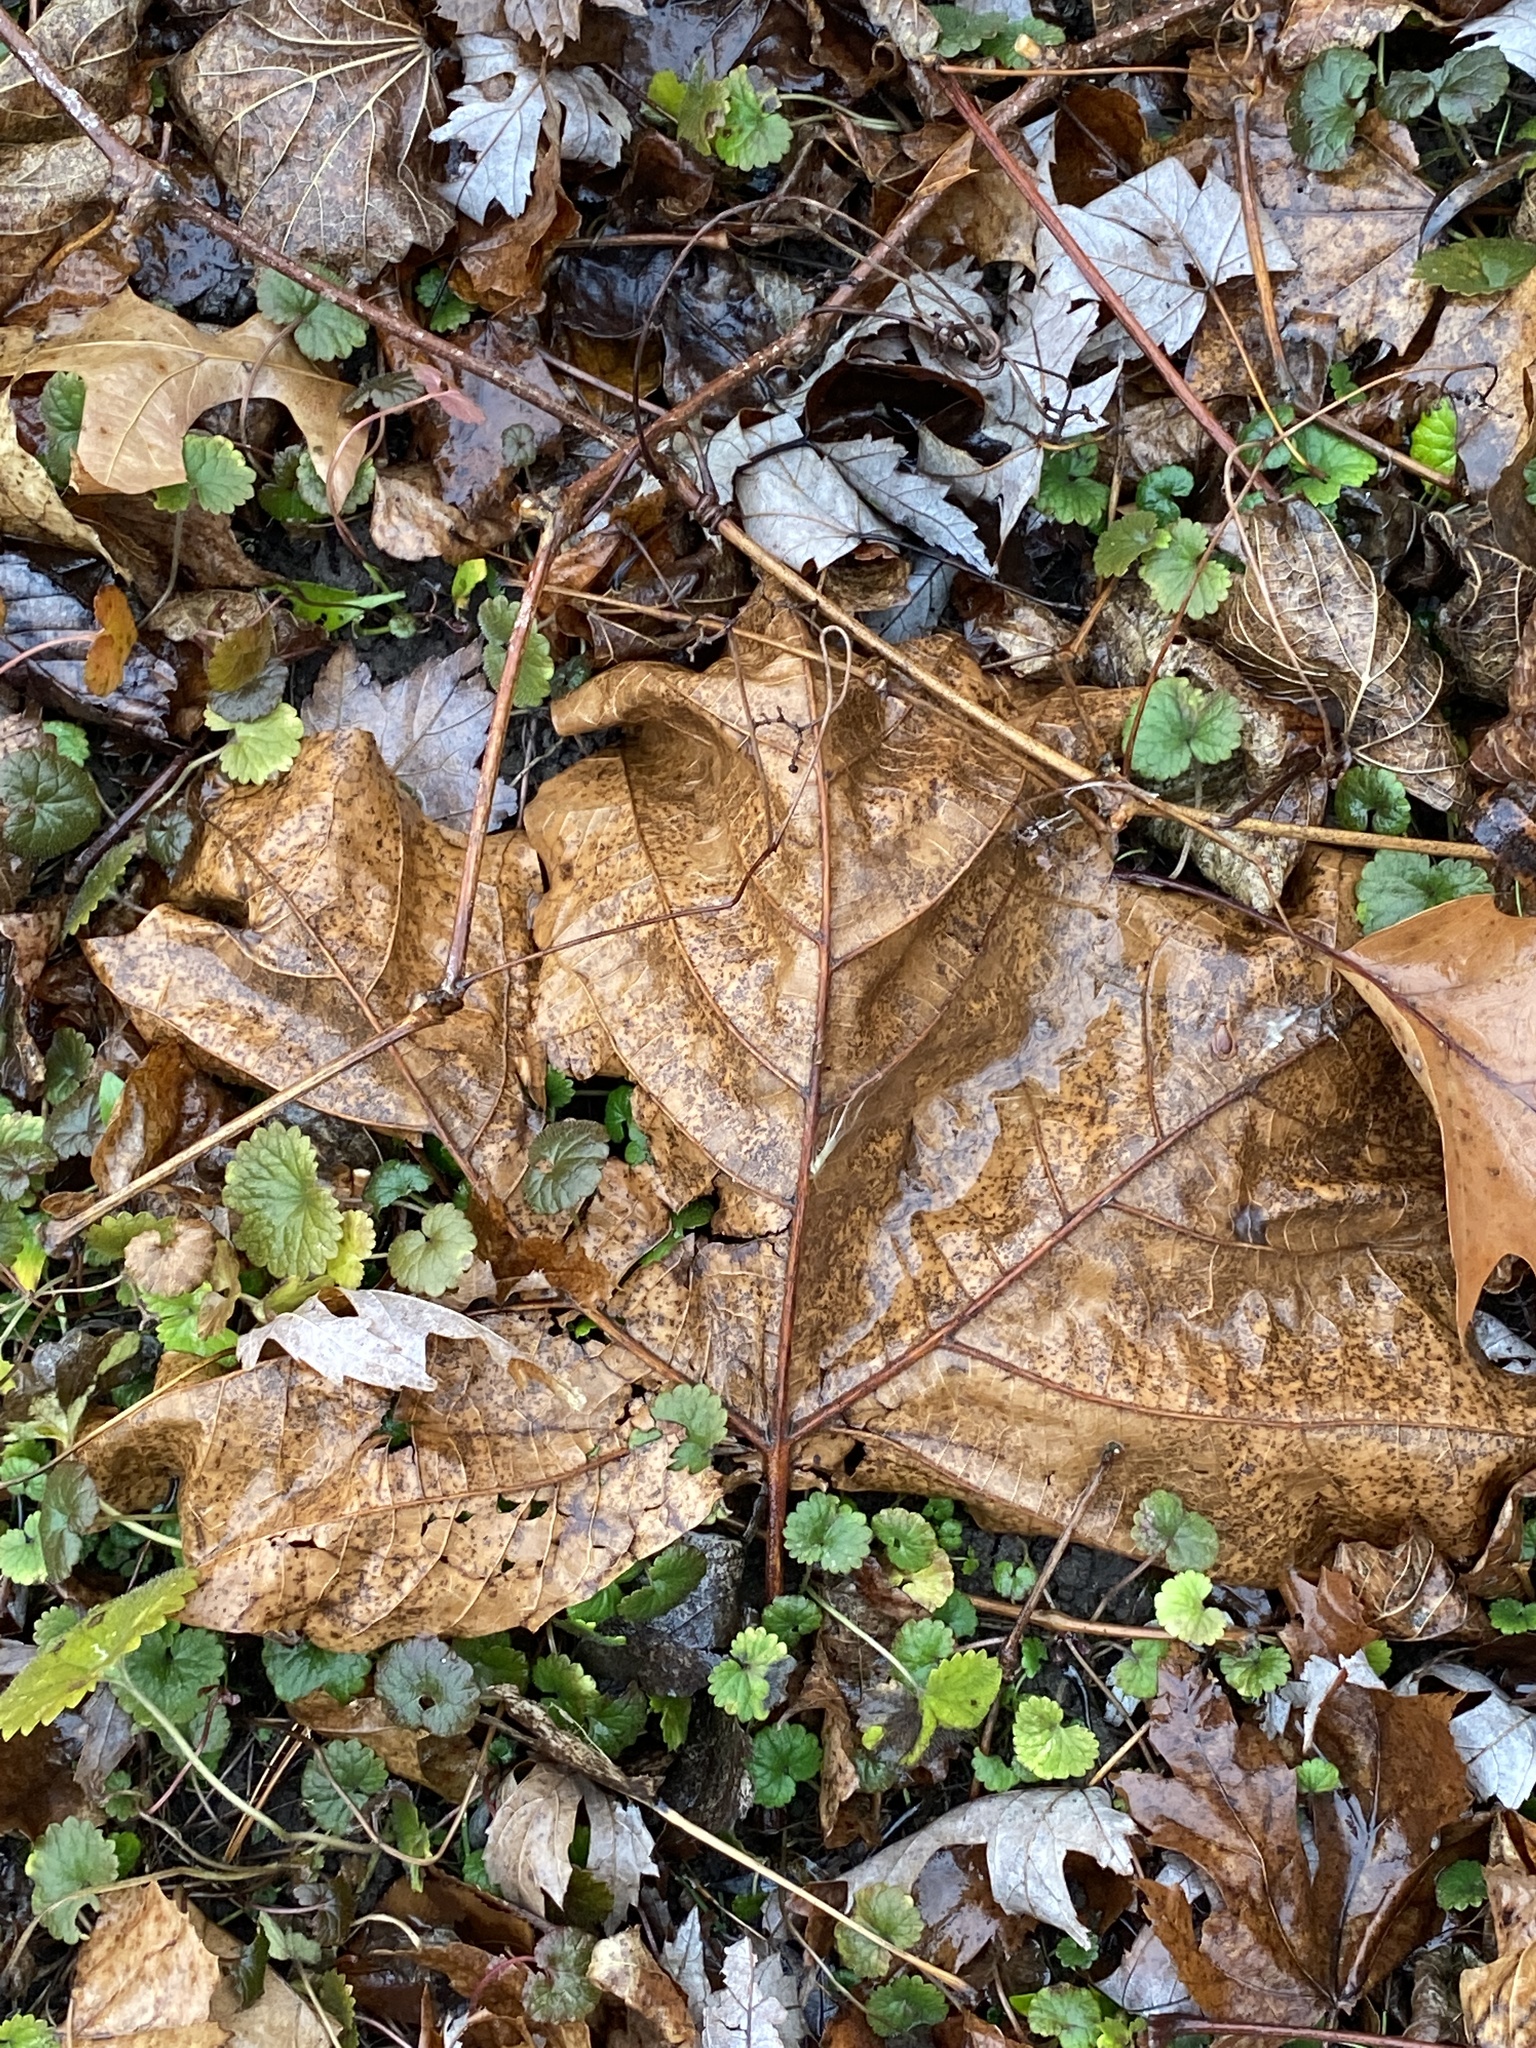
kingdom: Plantae
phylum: Tracheophyta
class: Magnoliopsida
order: Proteales
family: Platanaceae
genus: Platanus
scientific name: Platanus occidentalis
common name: American sycamore
